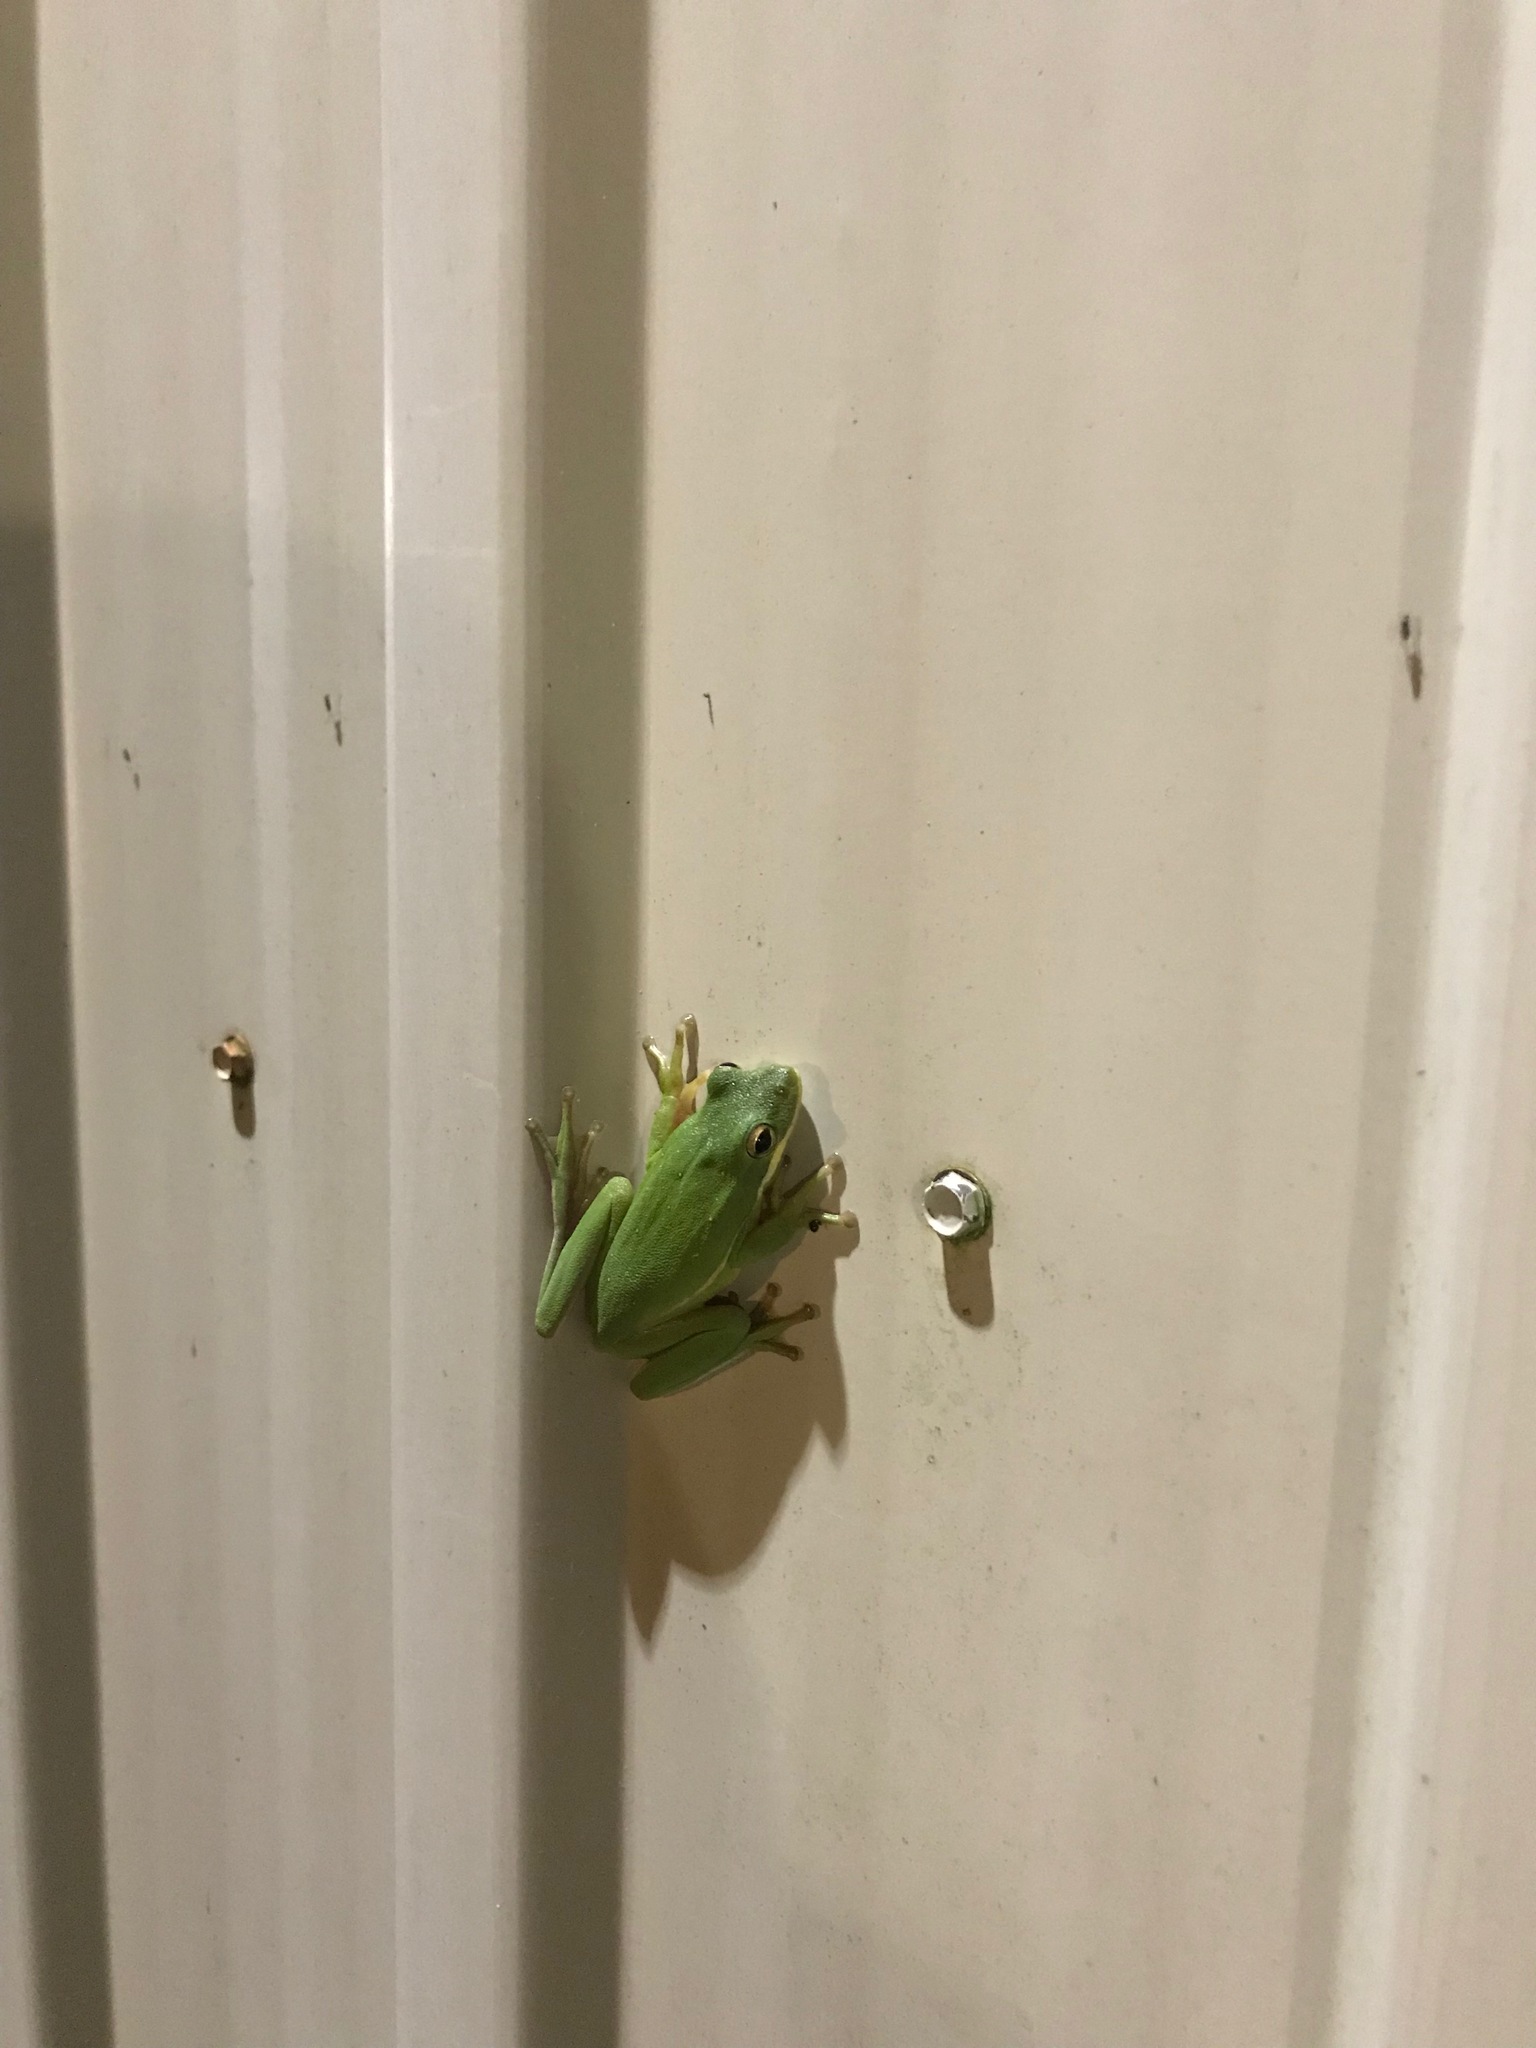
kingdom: Animalia
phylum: Chordata
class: Amphibia
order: Anura
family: Hylidae
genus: Dryophytes
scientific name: Dryophytes cinereus
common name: Green treefrog
